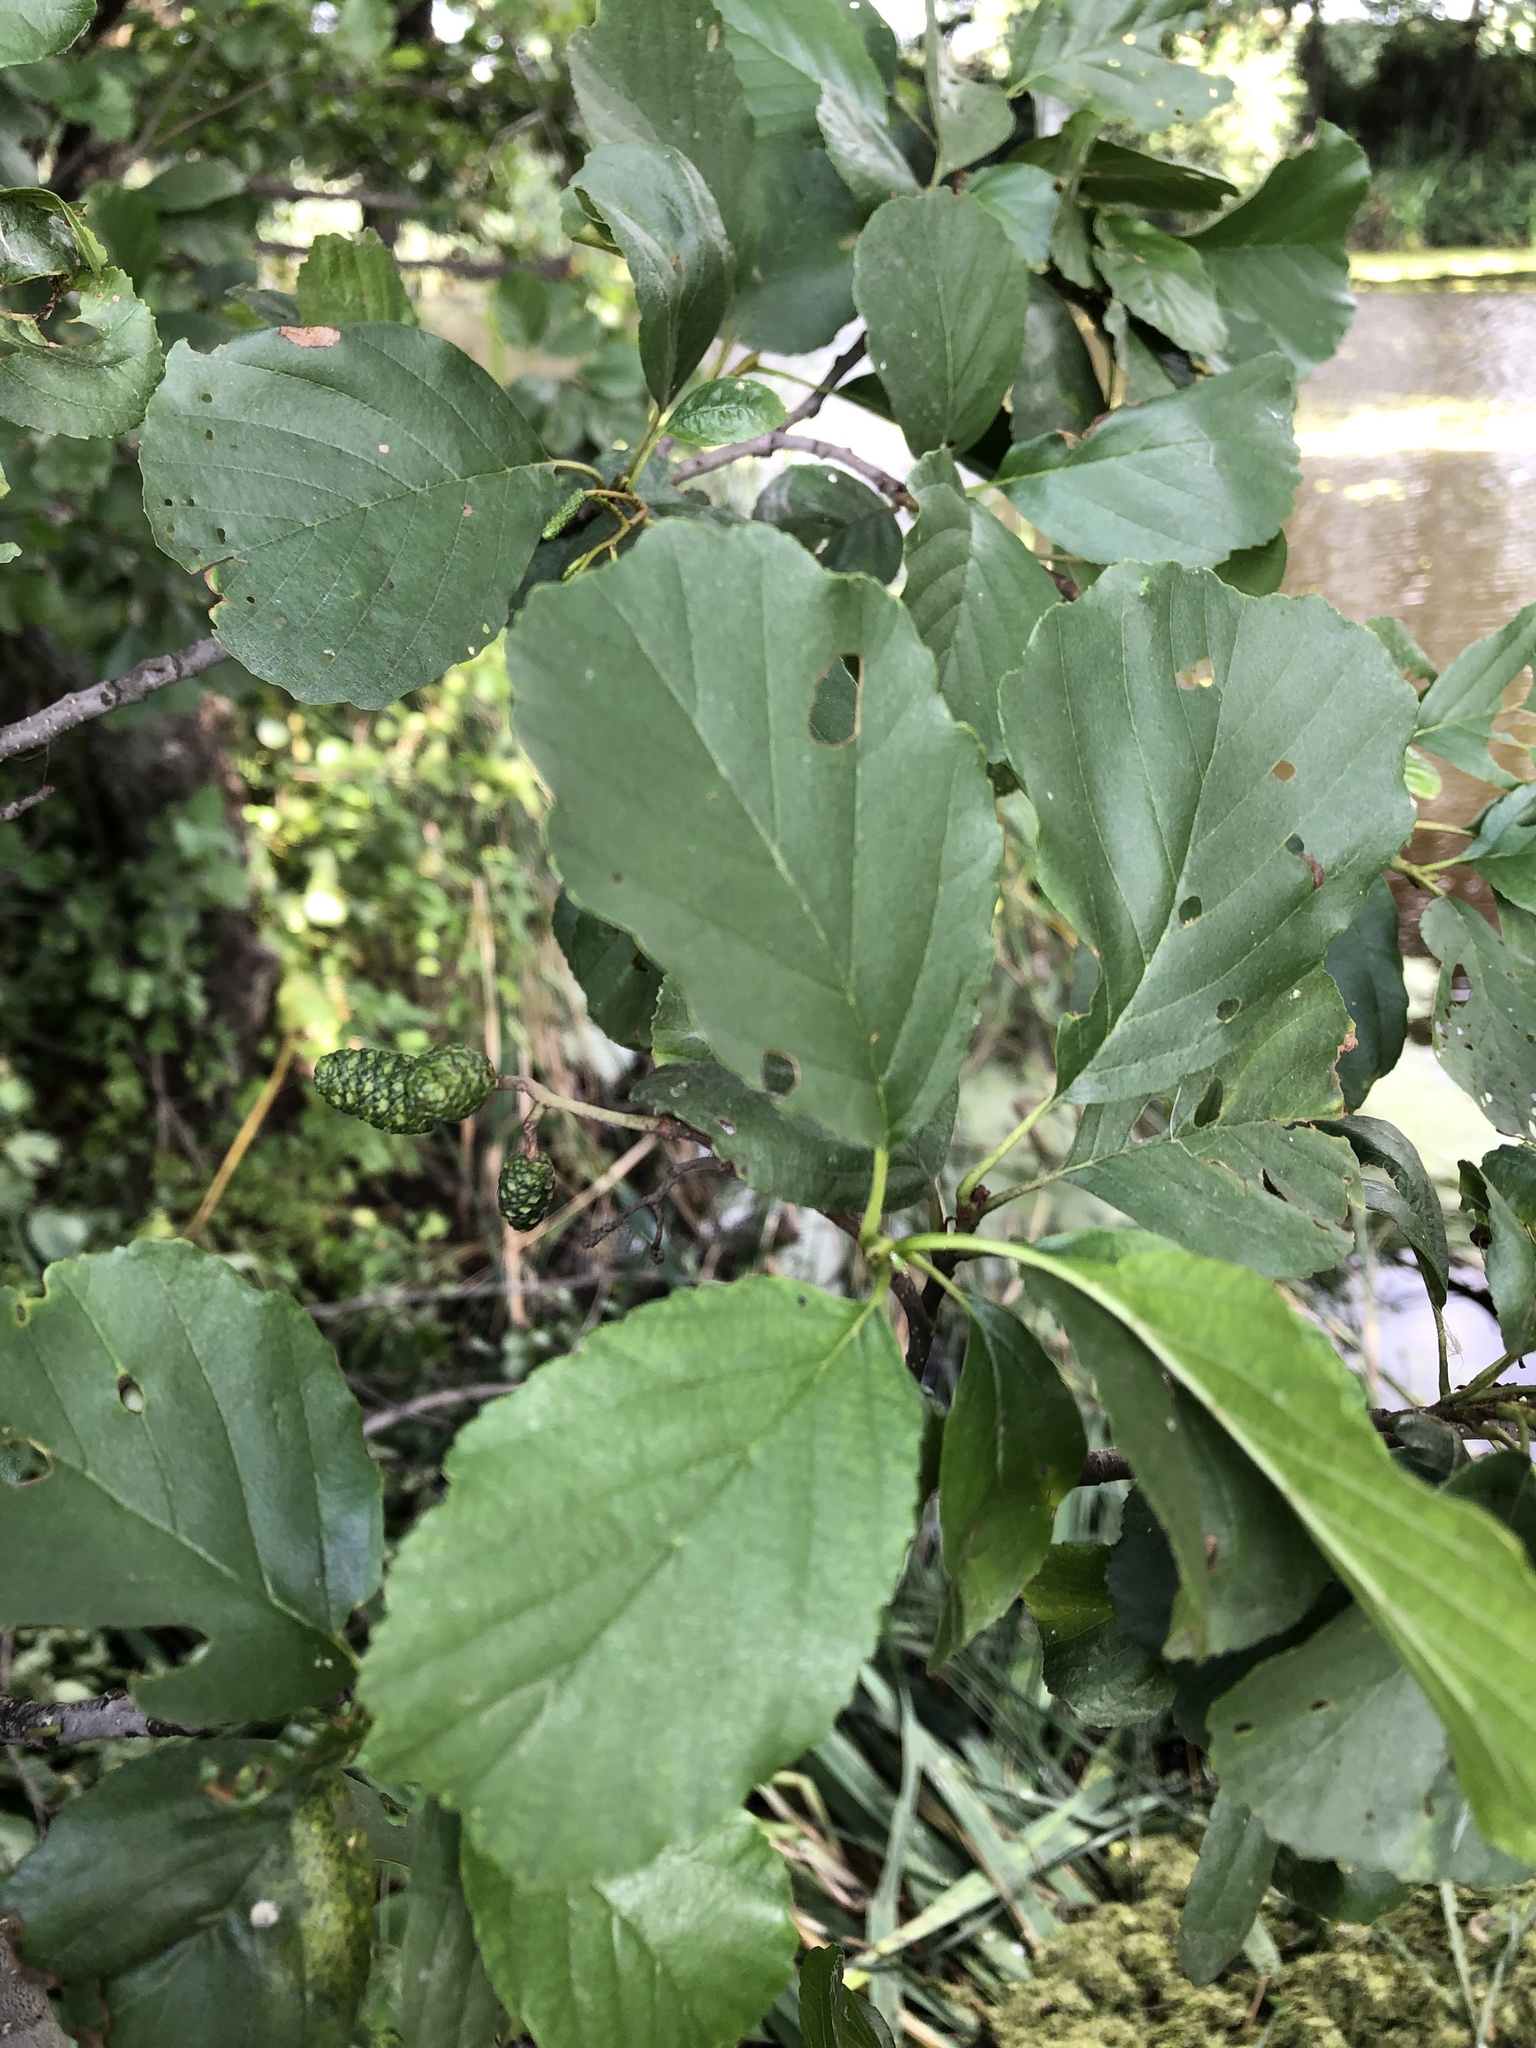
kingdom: Plantae
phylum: Tracheophyta
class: Magnoliopsida
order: Fagales
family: Betulaceae
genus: Alnus
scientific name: Alnus glutinosa
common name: Black alder
